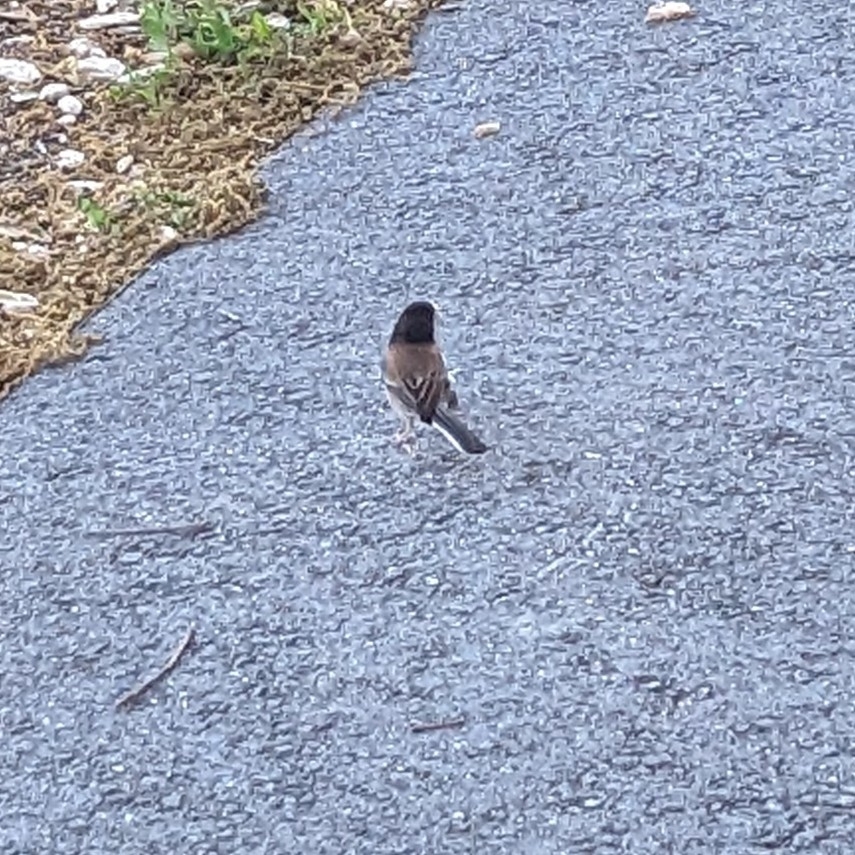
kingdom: Animalia
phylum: Chordata
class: Aves
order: Passeriformes
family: Passerellidae
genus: Junco
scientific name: Junco hyemalis
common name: Dark-eyed junco
